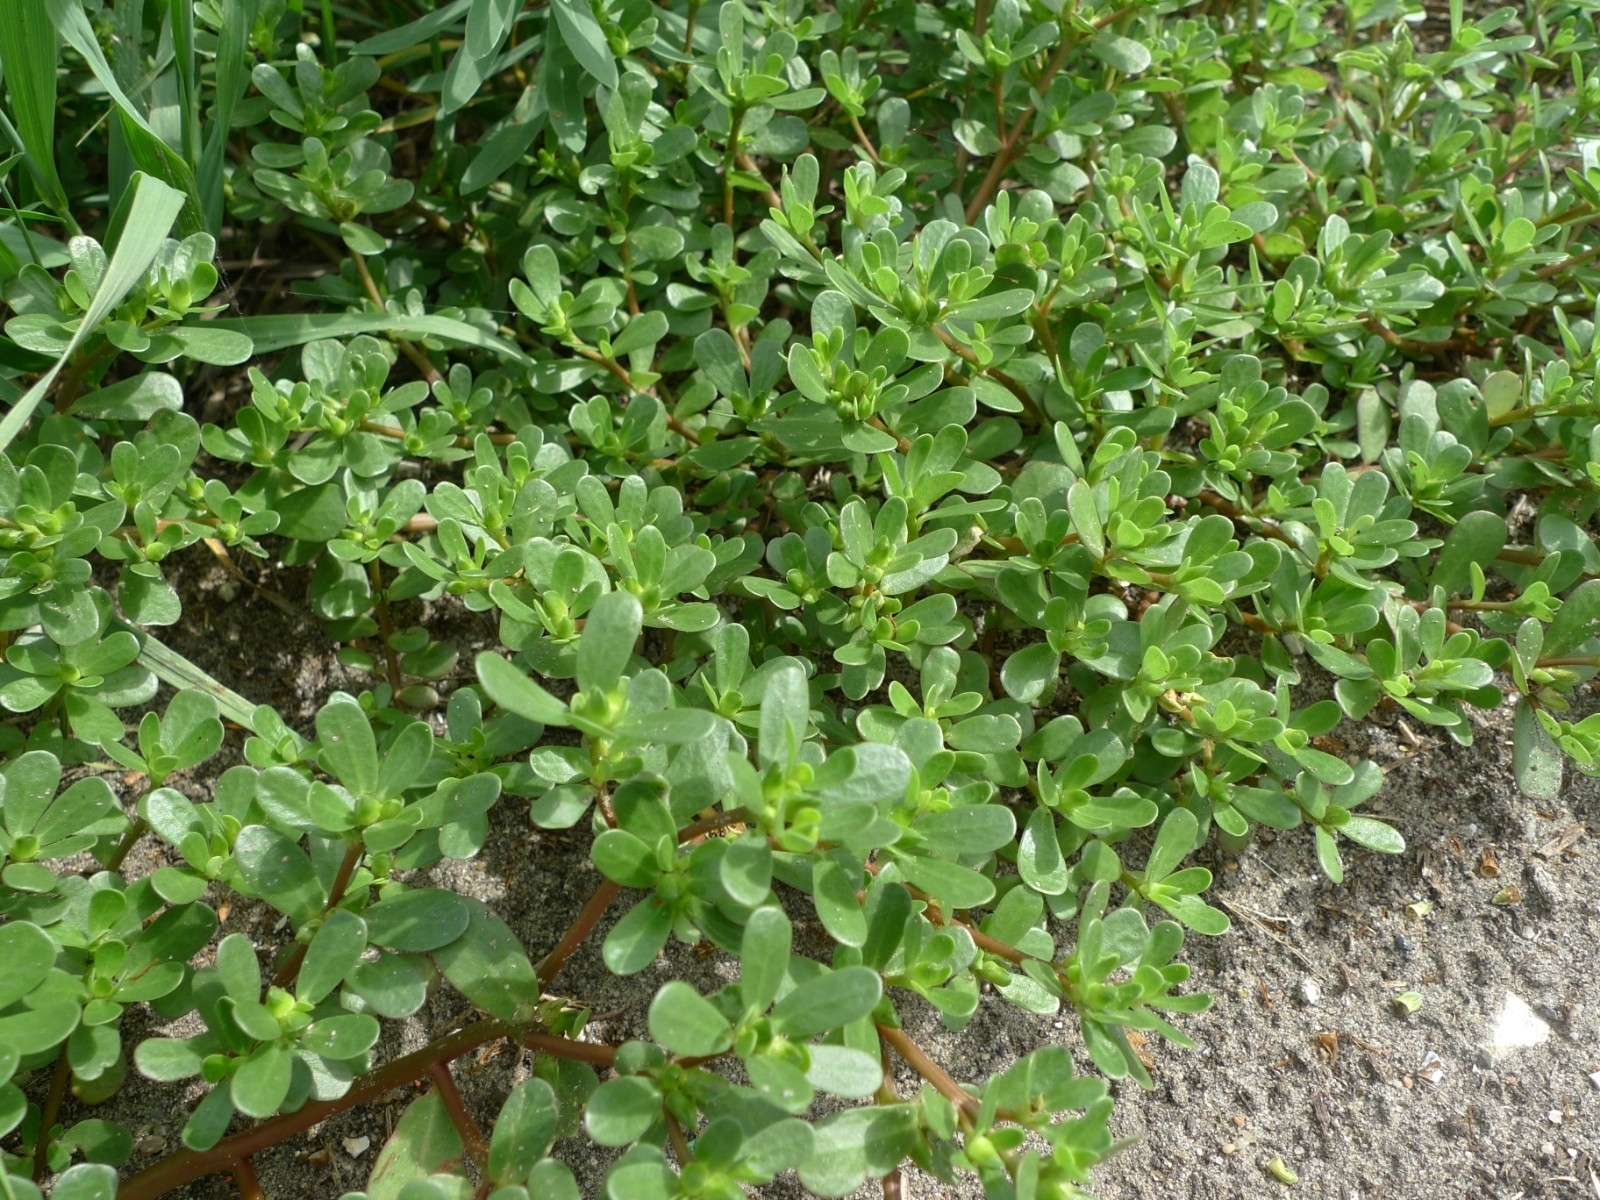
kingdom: Plantae
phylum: Tracheophyta
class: Magnoliopsida
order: Caryophyllales
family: Portulacaceae
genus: Portulaca
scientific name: Portulaca oleracea
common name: Common purslane
